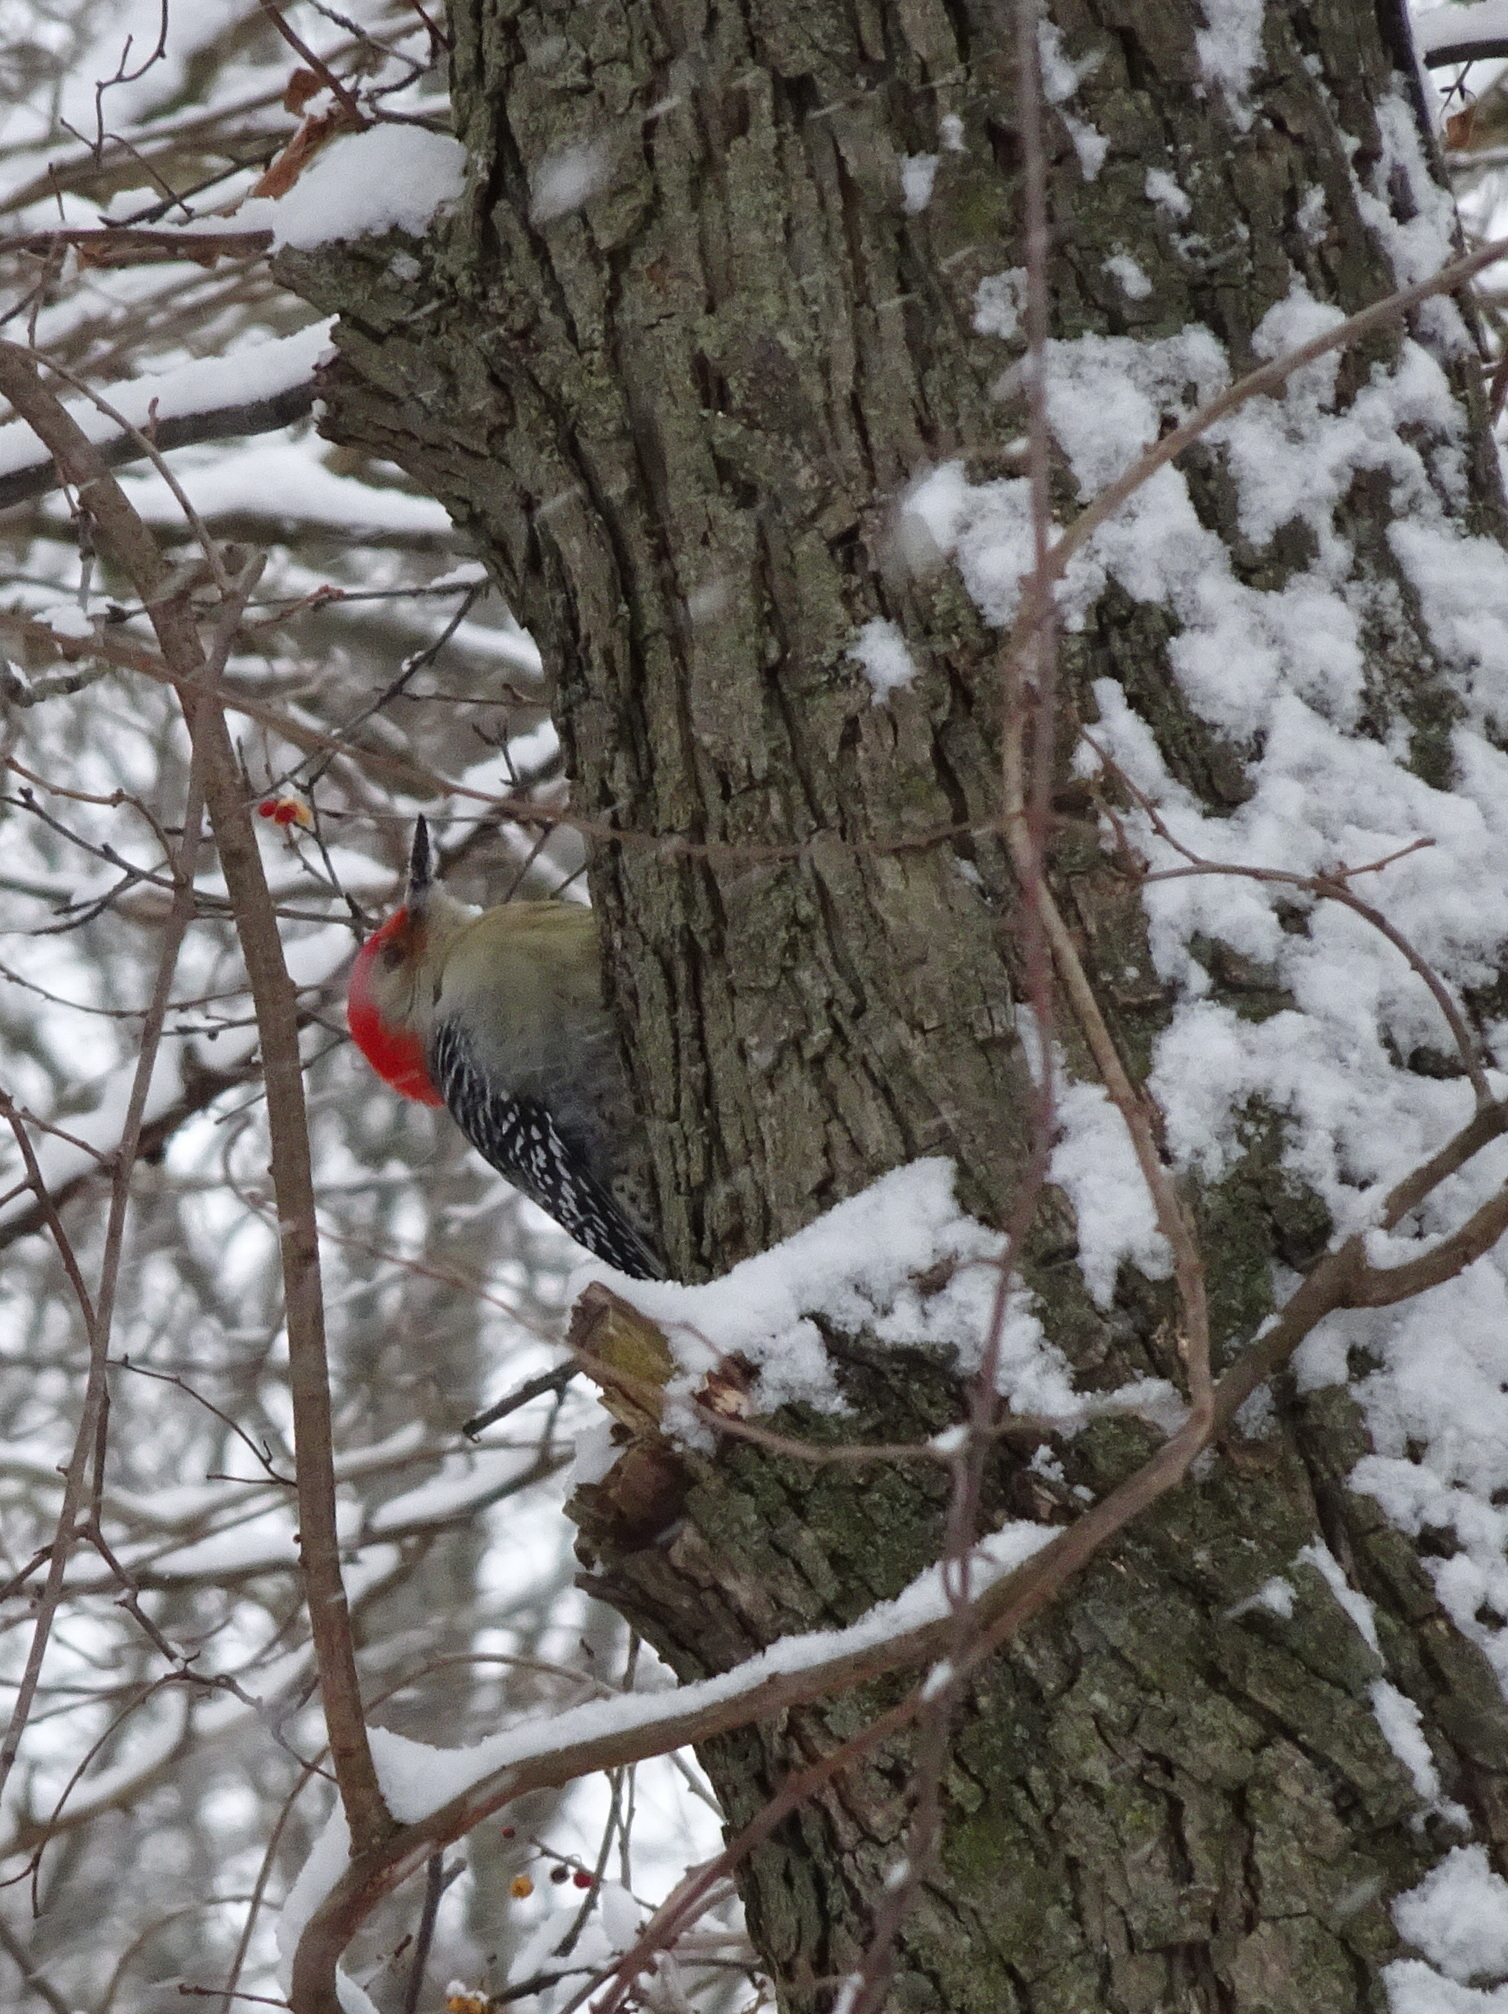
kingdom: Animalia
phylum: Chordata
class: Aves
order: Piciformes
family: Picidae
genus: Melanerpes
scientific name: Melanerpes carolinus
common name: Red-bellied woodpecker
